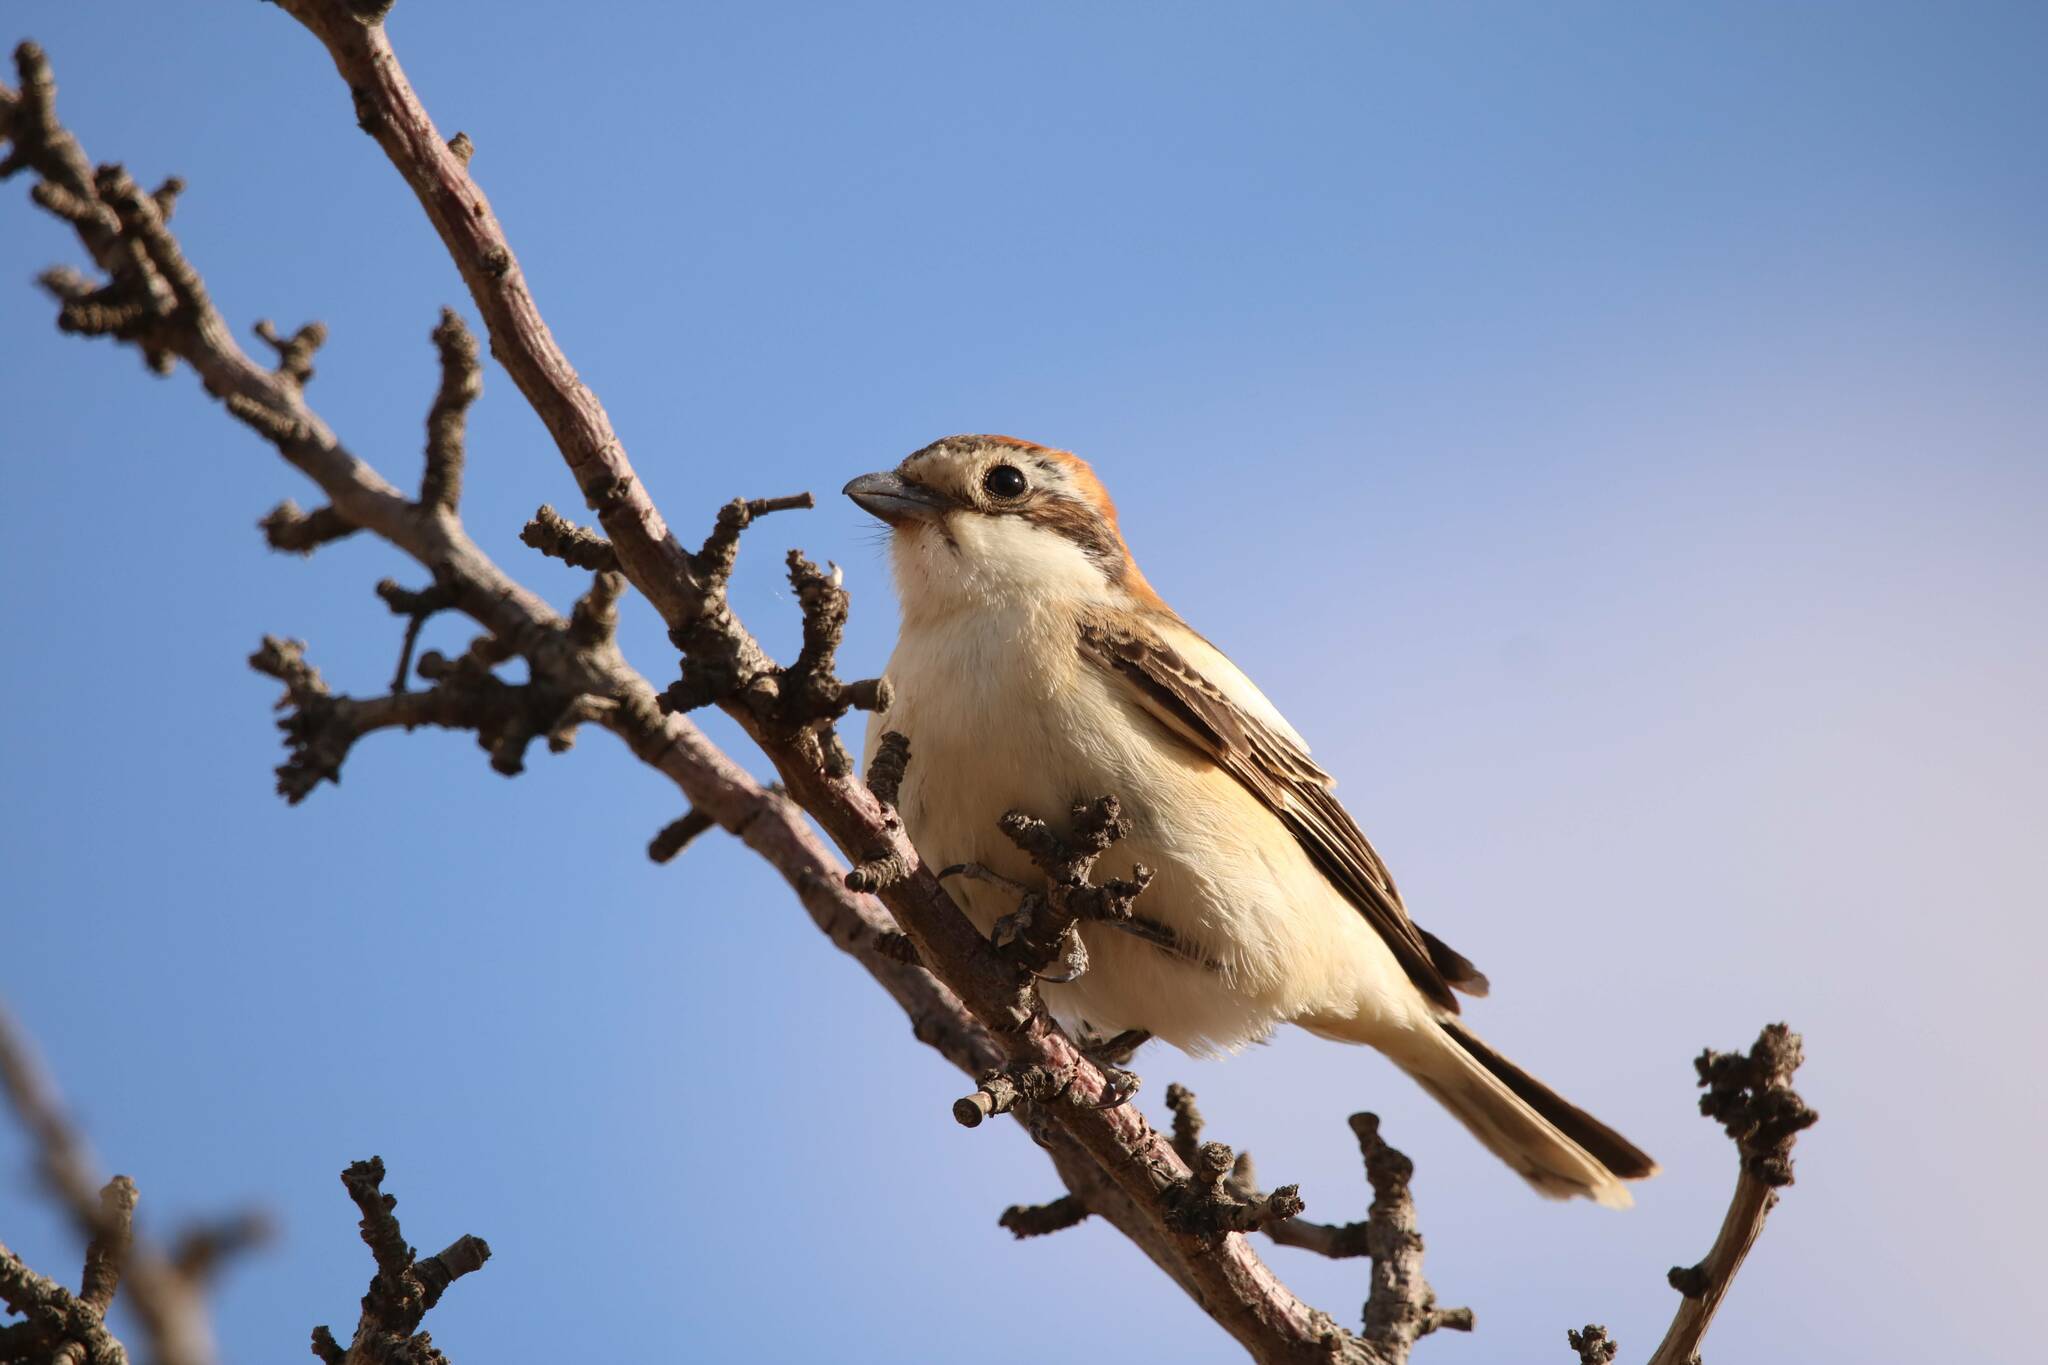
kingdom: Animalia
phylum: Chordata
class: Aves
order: Passeriformes
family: Laniidae
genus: Lanius
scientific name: Lanius senator
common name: Woodchat shrike
